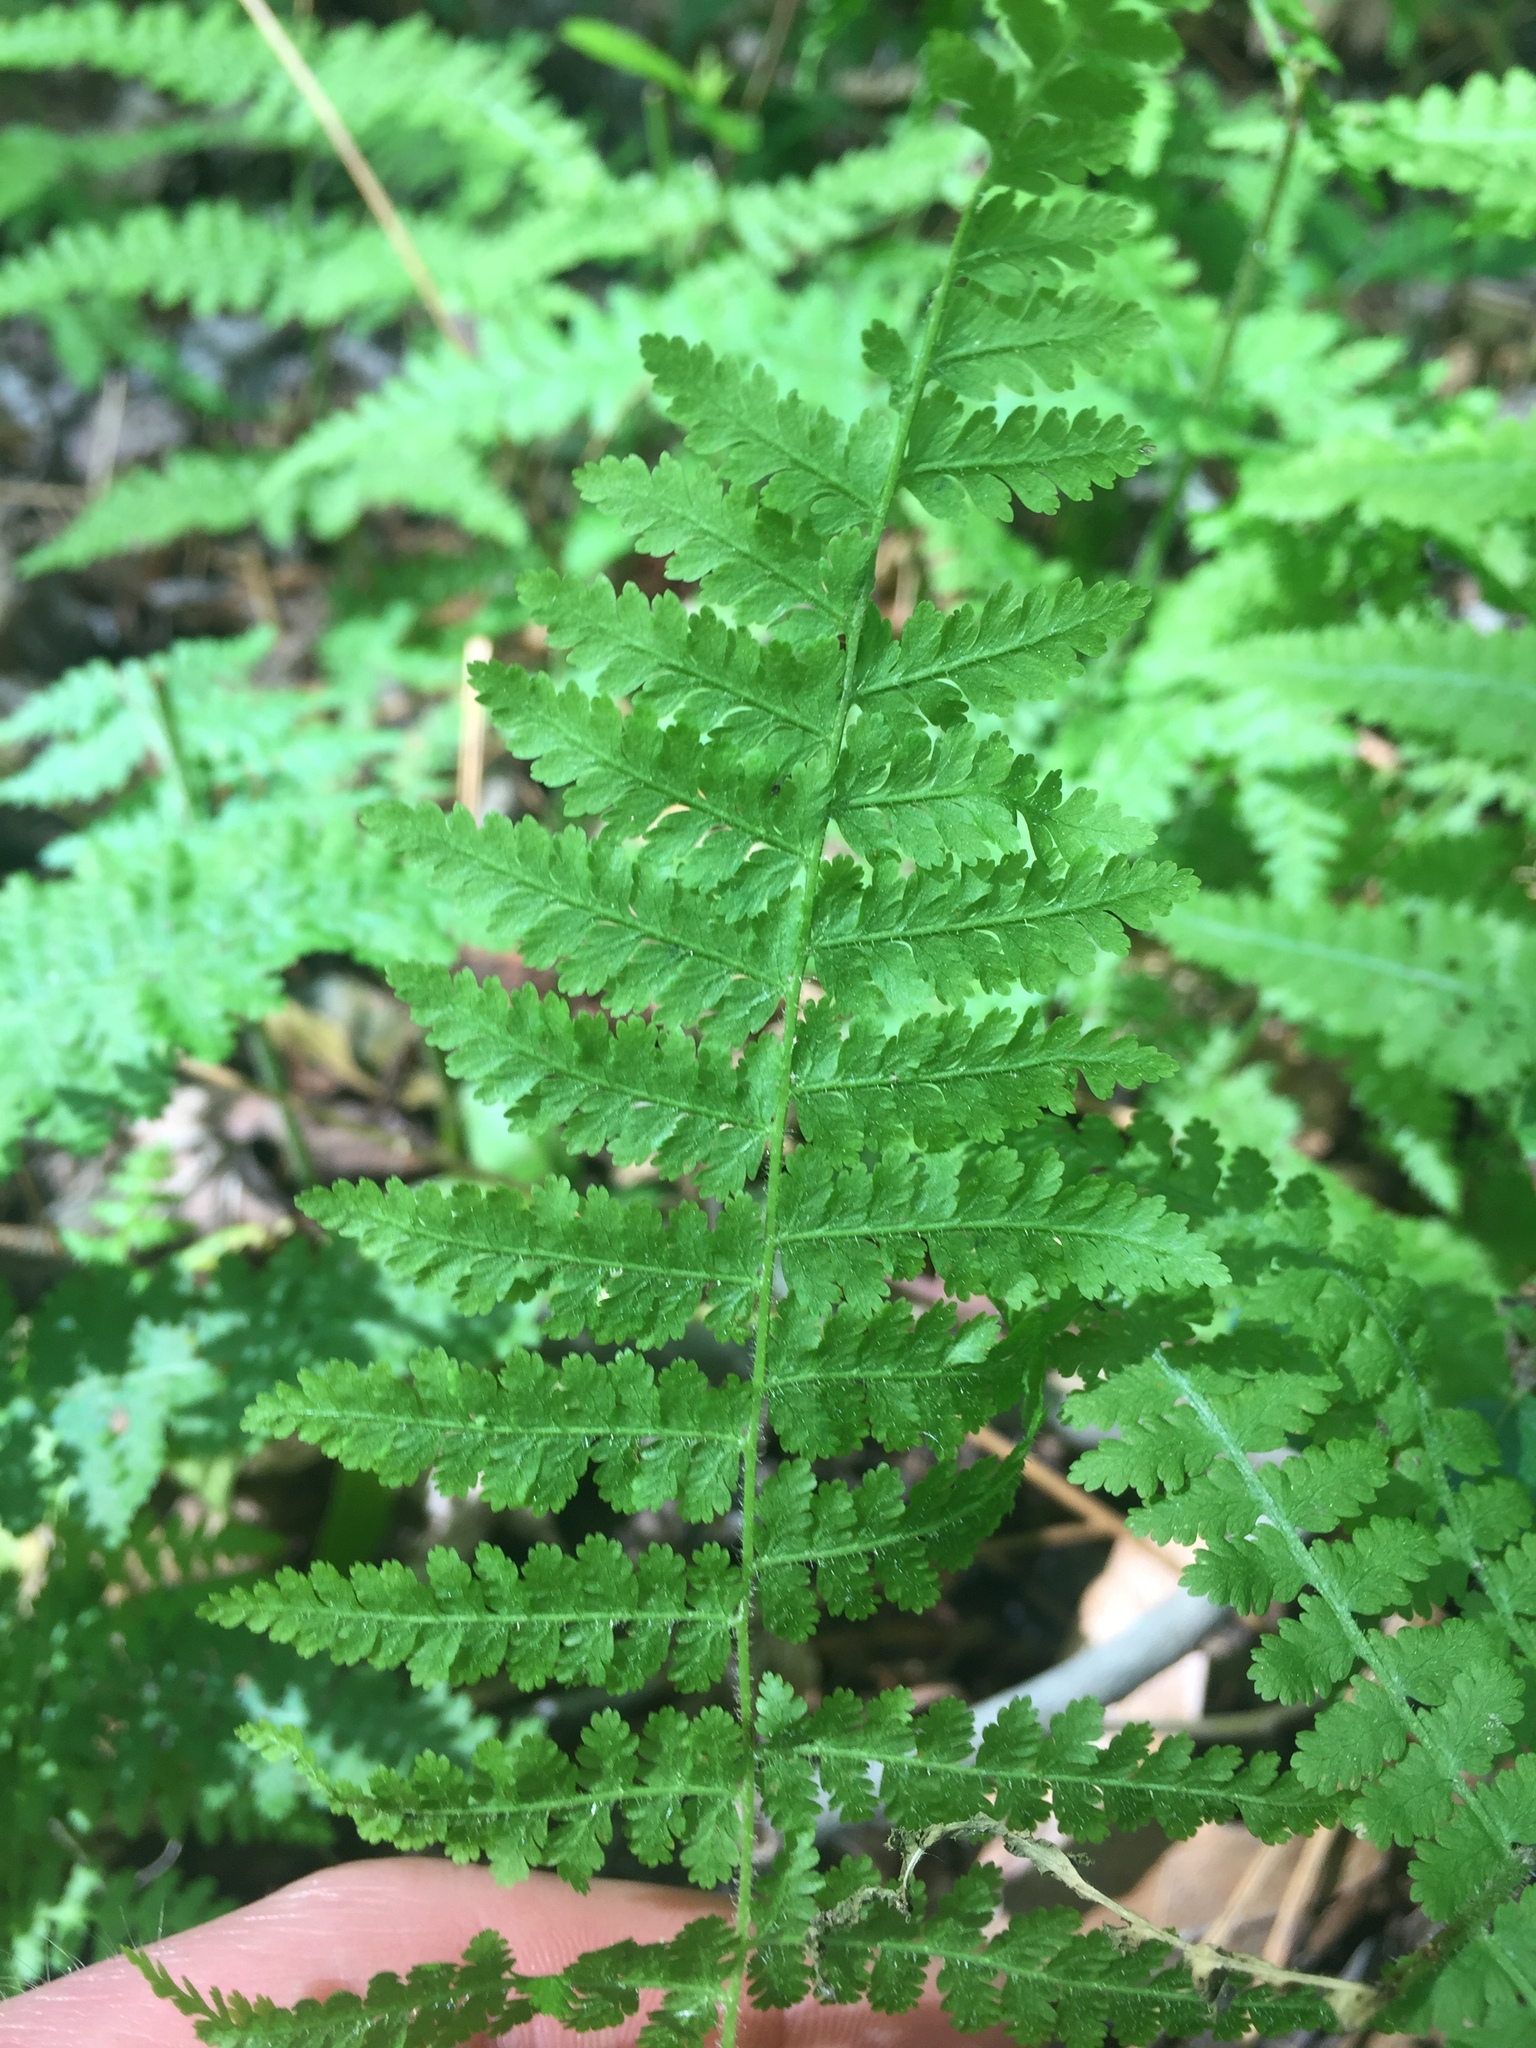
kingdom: Plantae
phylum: Tracheophyta
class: Polypodiopsida
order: Polypodiales
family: Dennstaedtiaceae
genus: Sitobolium
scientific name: Sitobolium punctilobum
